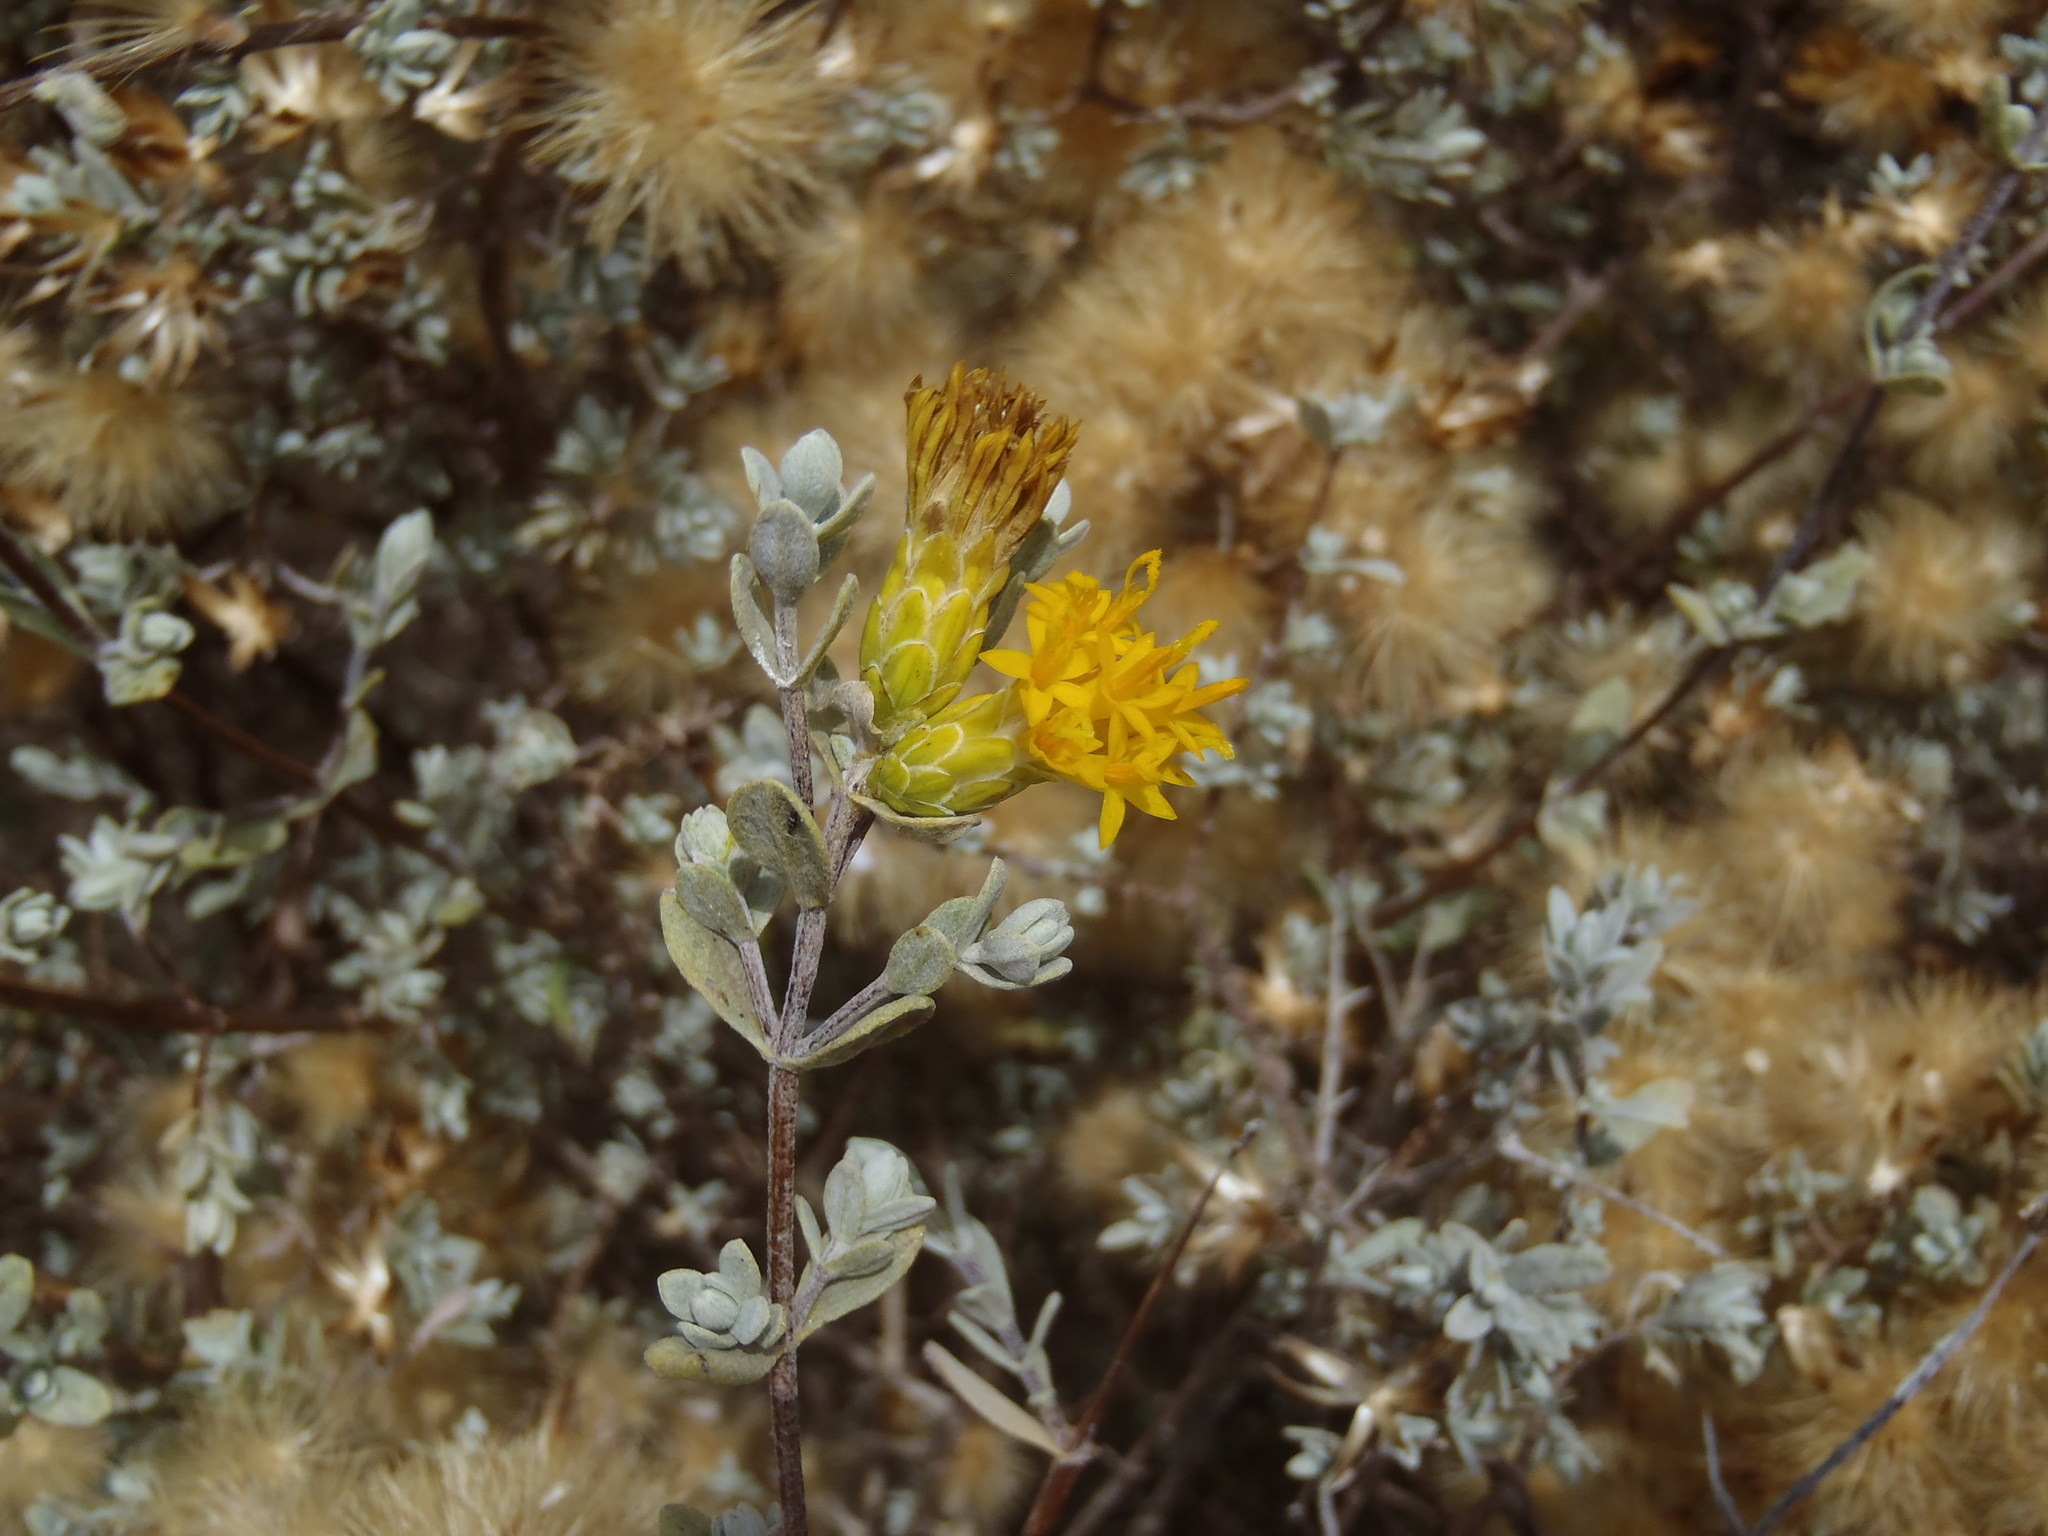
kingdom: Plantae
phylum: Tracheophyta
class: Magnoliopsida
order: Asterales
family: Asteraceae
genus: Pteronia
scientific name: Pteronia incana
